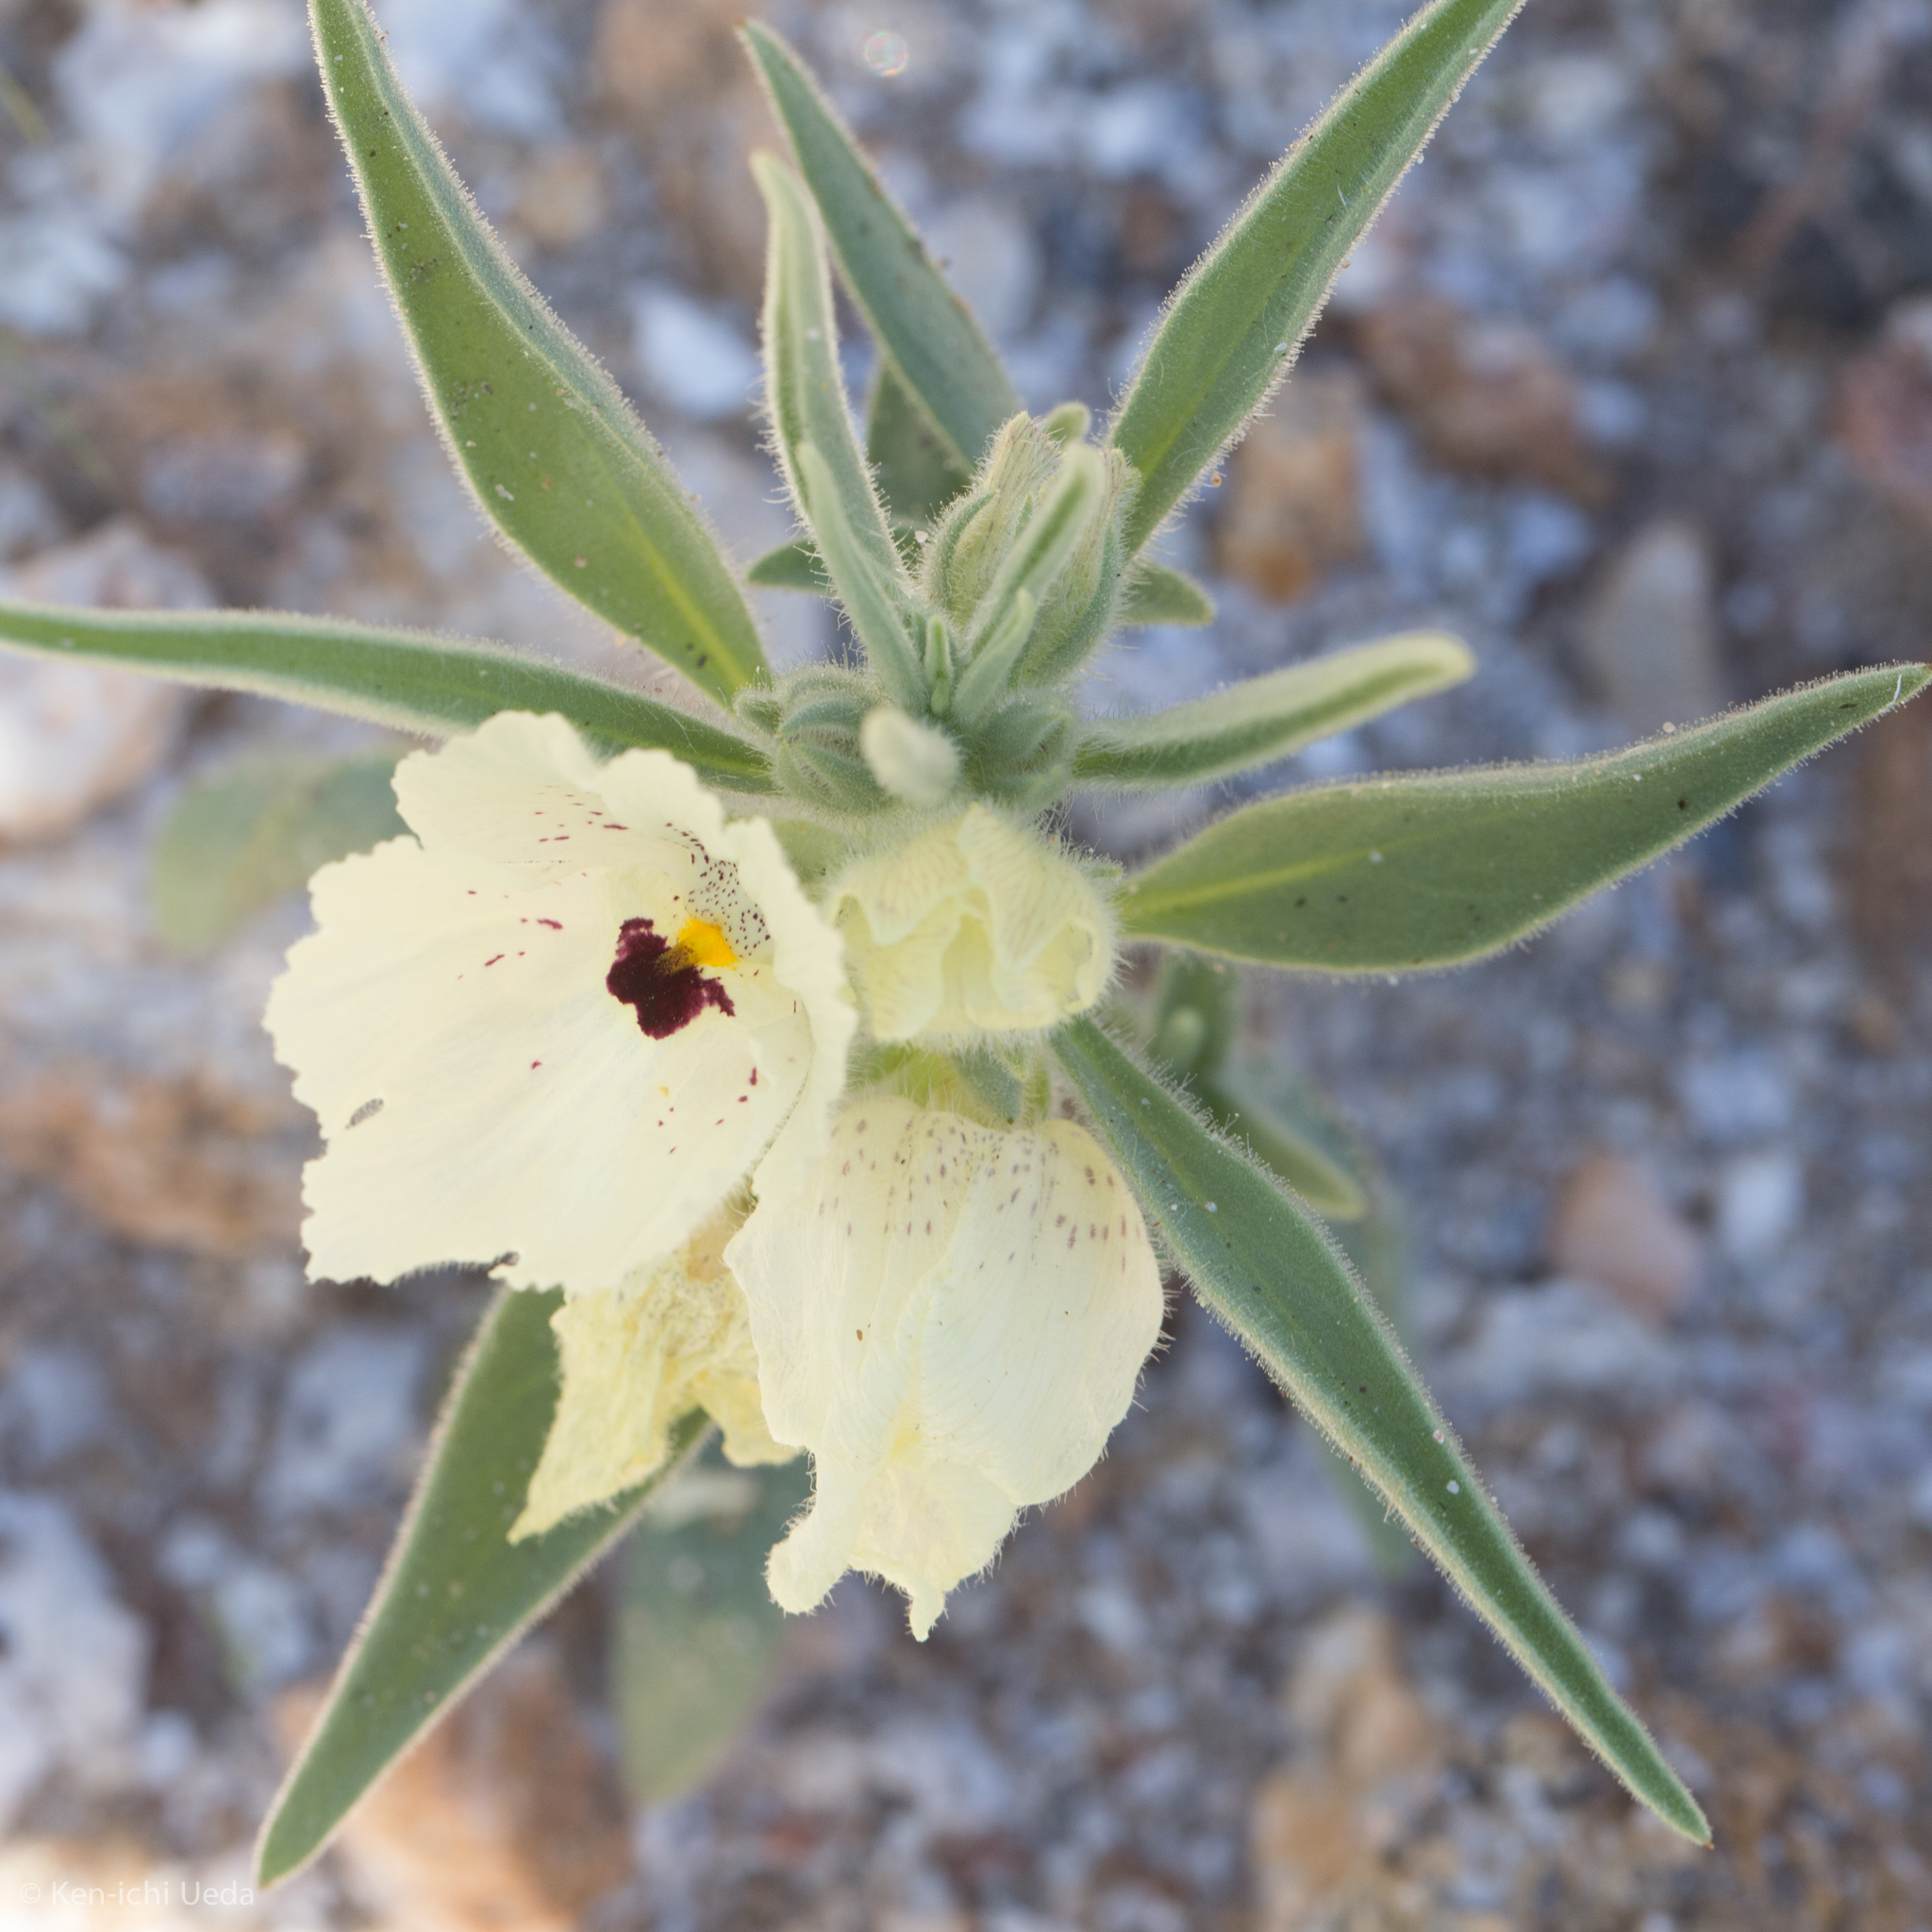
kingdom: Plantae
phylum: Tracheophyta
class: Magnoliopsida
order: Lamiales
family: Plantaginaceae
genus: Mohavea
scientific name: Mohavea confertiflora
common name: Ghost flower
